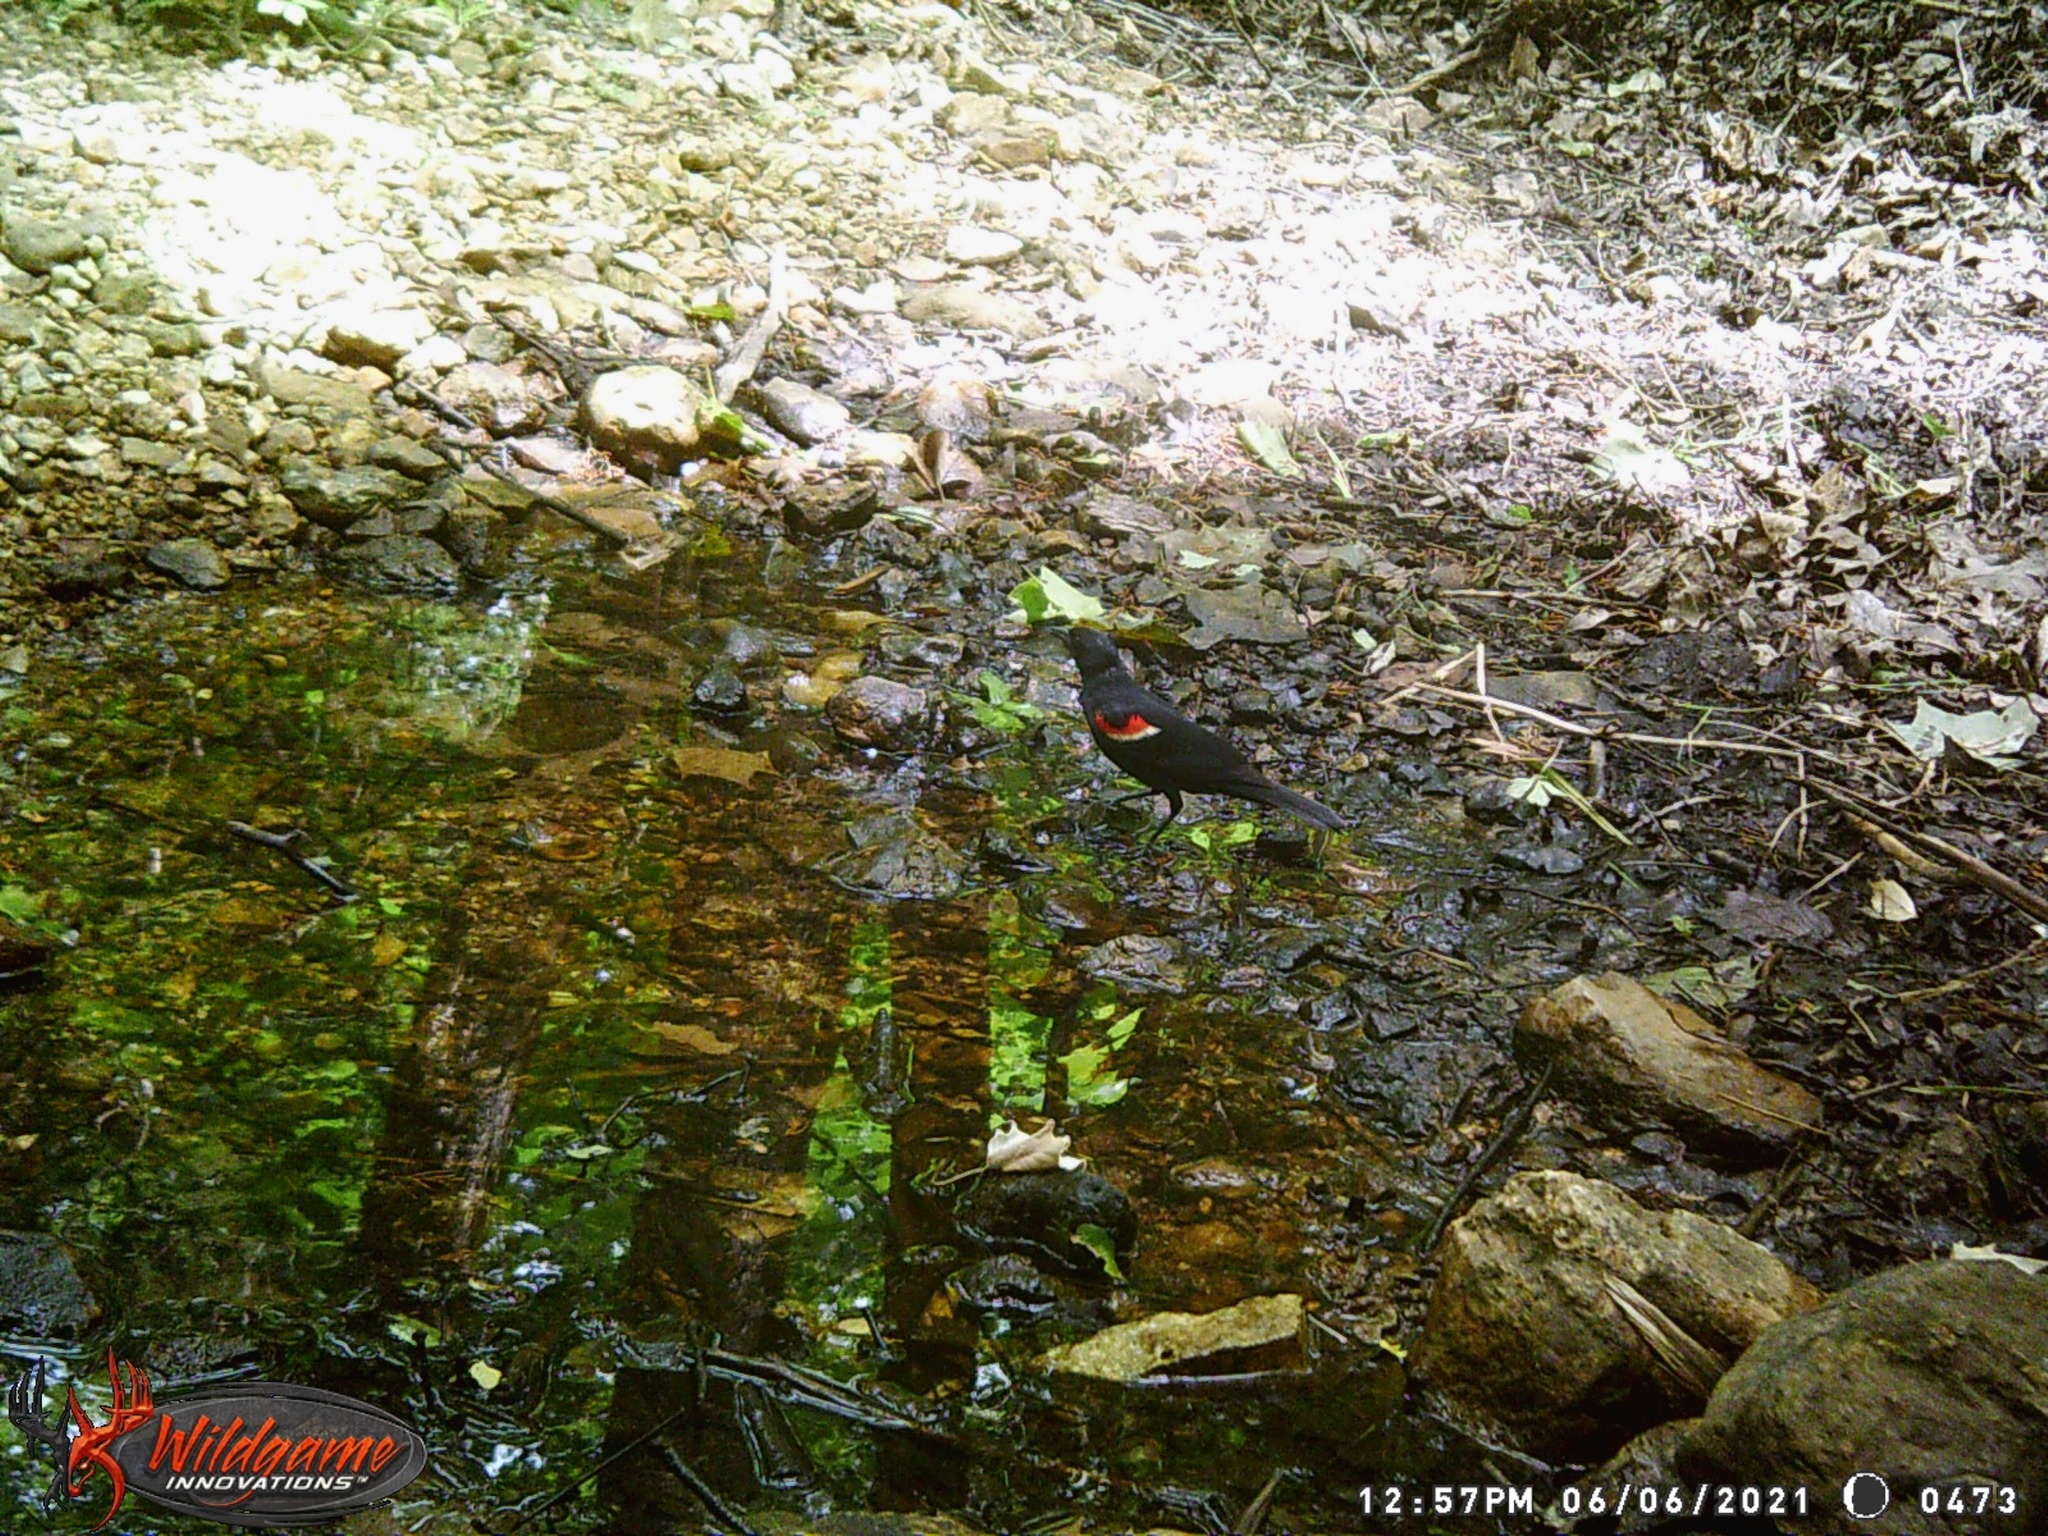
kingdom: Animalia
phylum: Chordata
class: Aves
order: Passeriformes
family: Icteridae
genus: Agelaius
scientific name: Agelaius phoeniceus
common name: Red-winged blackbird
